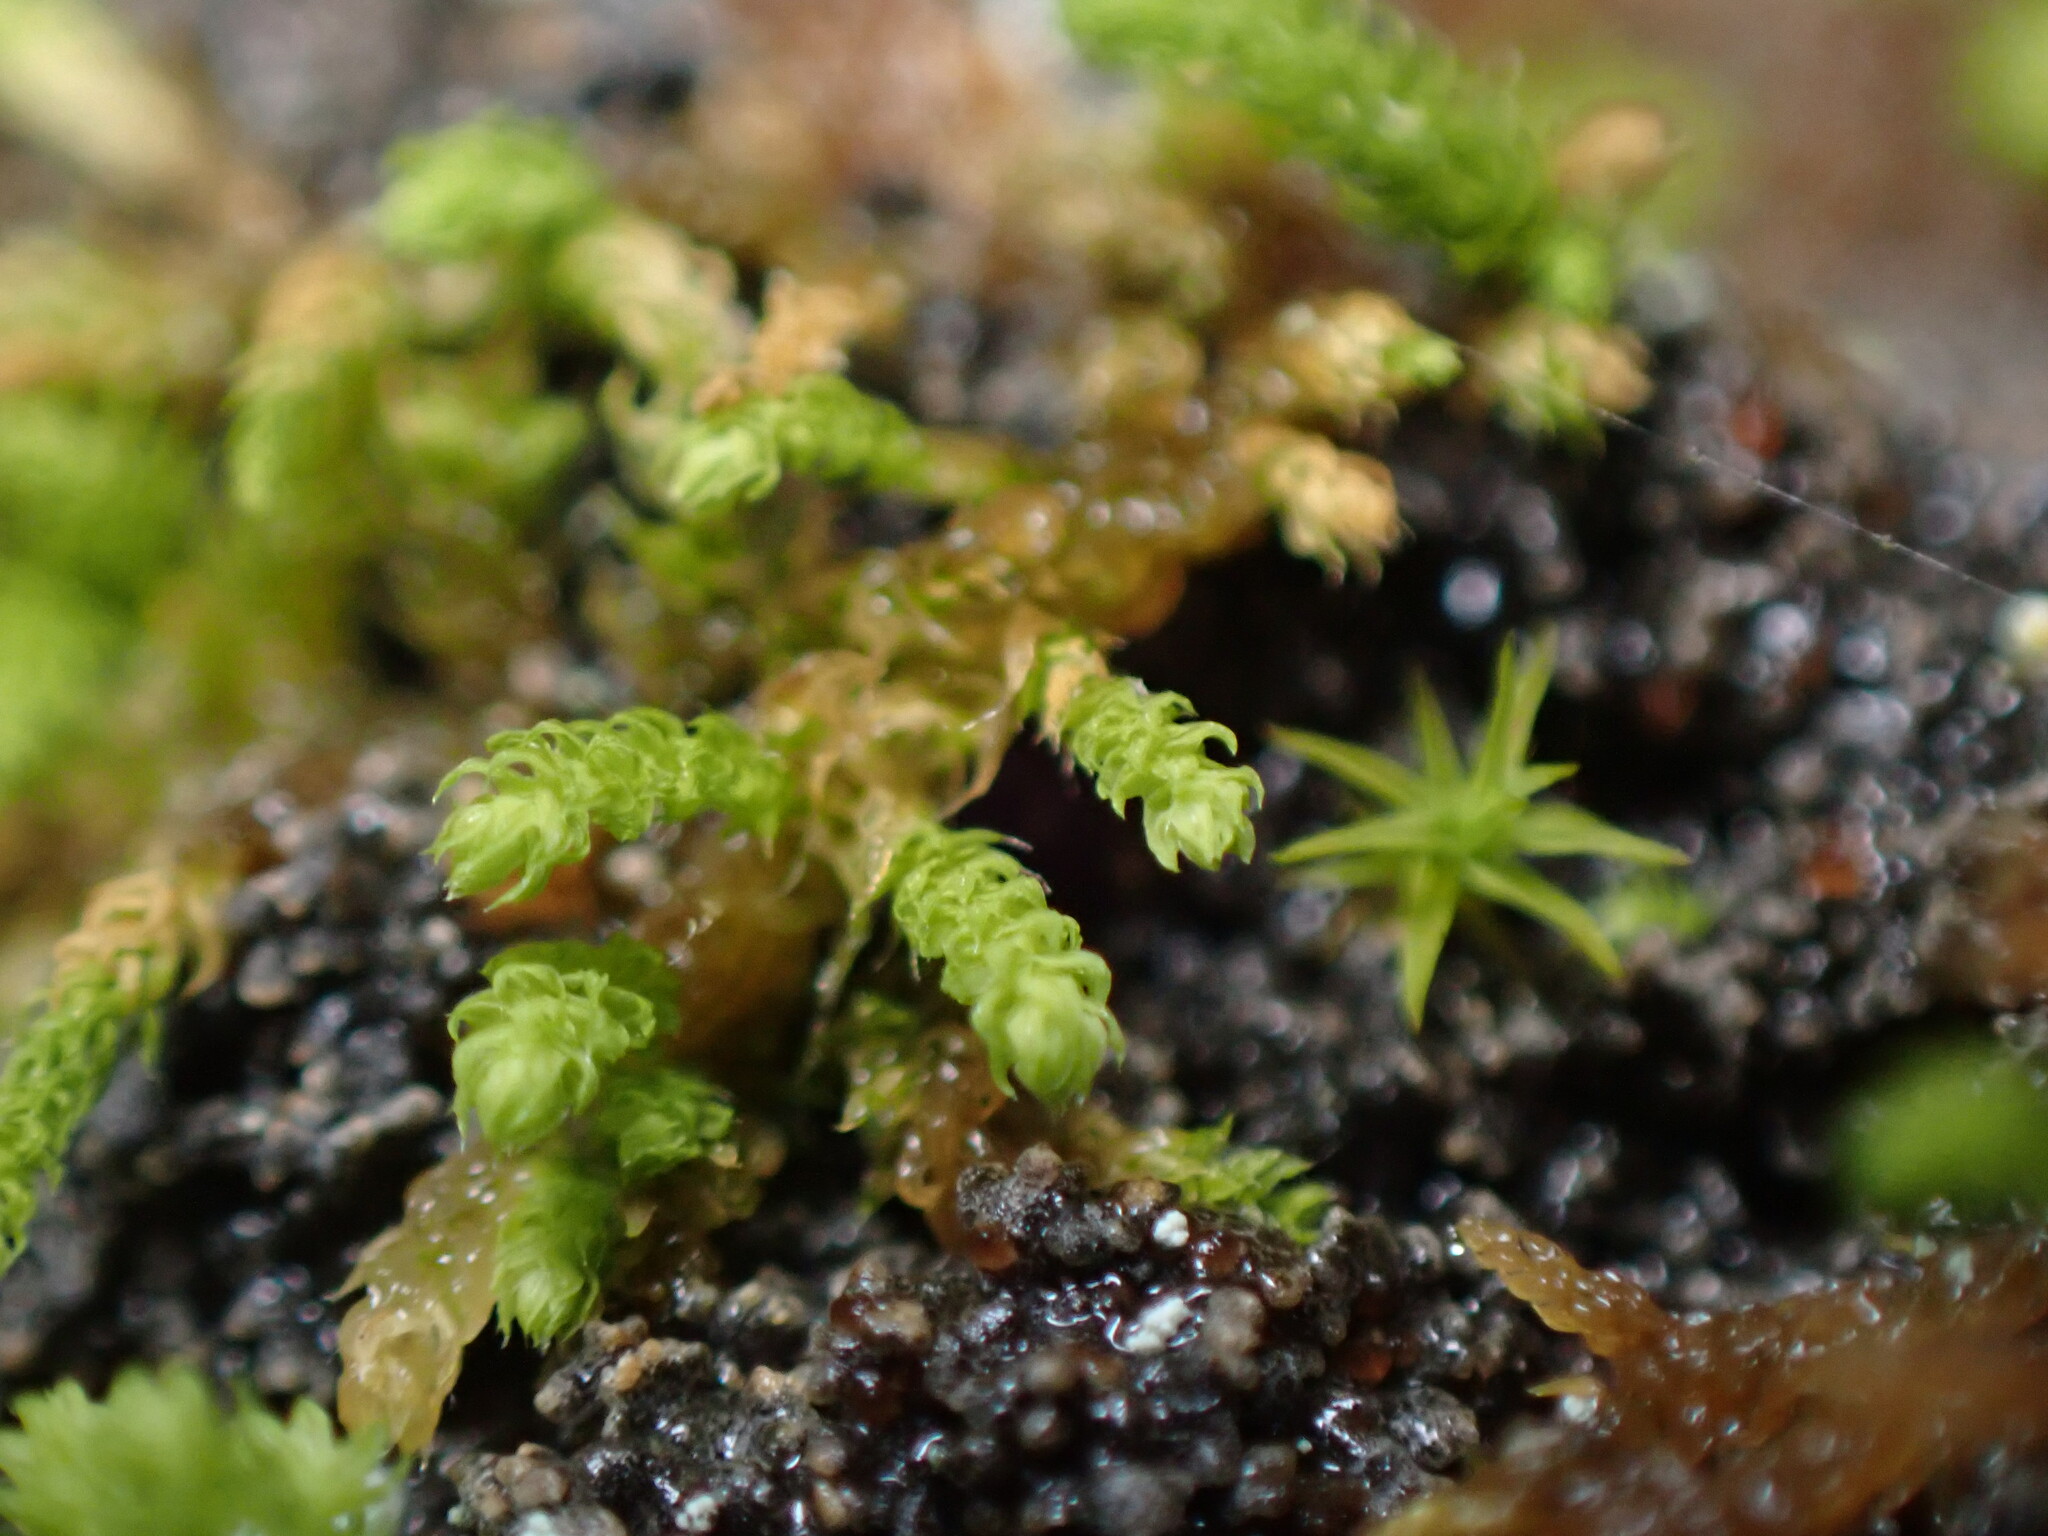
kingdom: Plantae
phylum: Bryophyta
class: Bryopsida
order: Hypnales
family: Brachytheciaceae
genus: Claopodium
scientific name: Claopodium bolanderi
